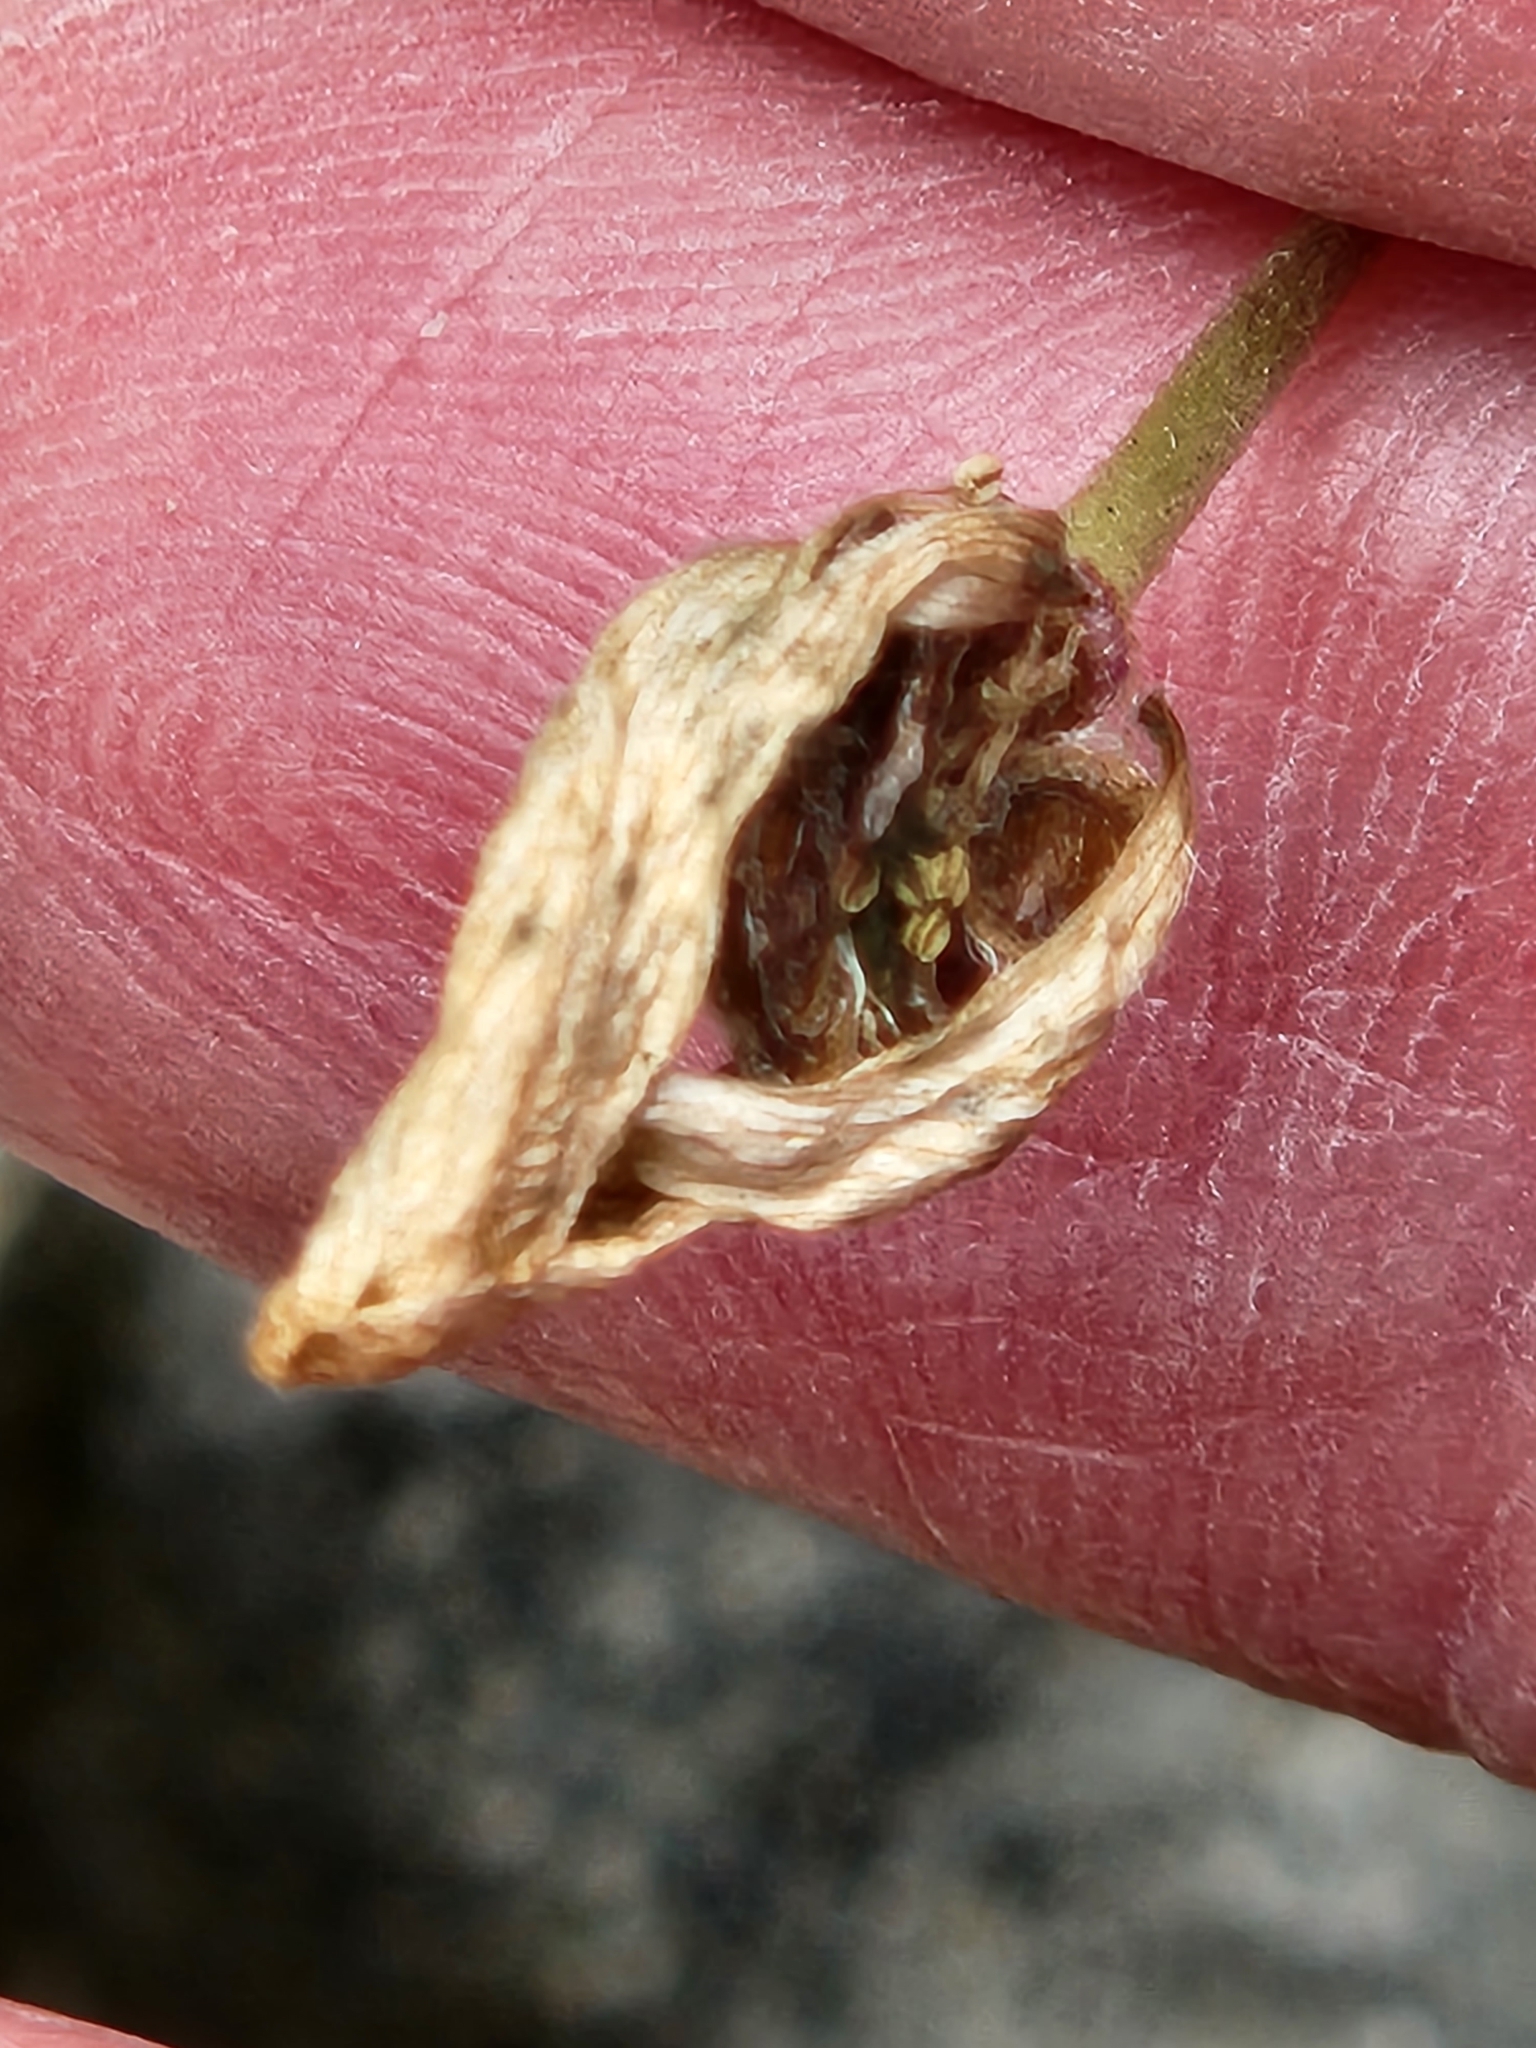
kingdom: Plantae
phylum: Tracheophyta
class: Magnoliopsida
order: Ranunculales
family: Ranunculaceae
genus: Anemone
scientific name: Anemone edwardsiana
